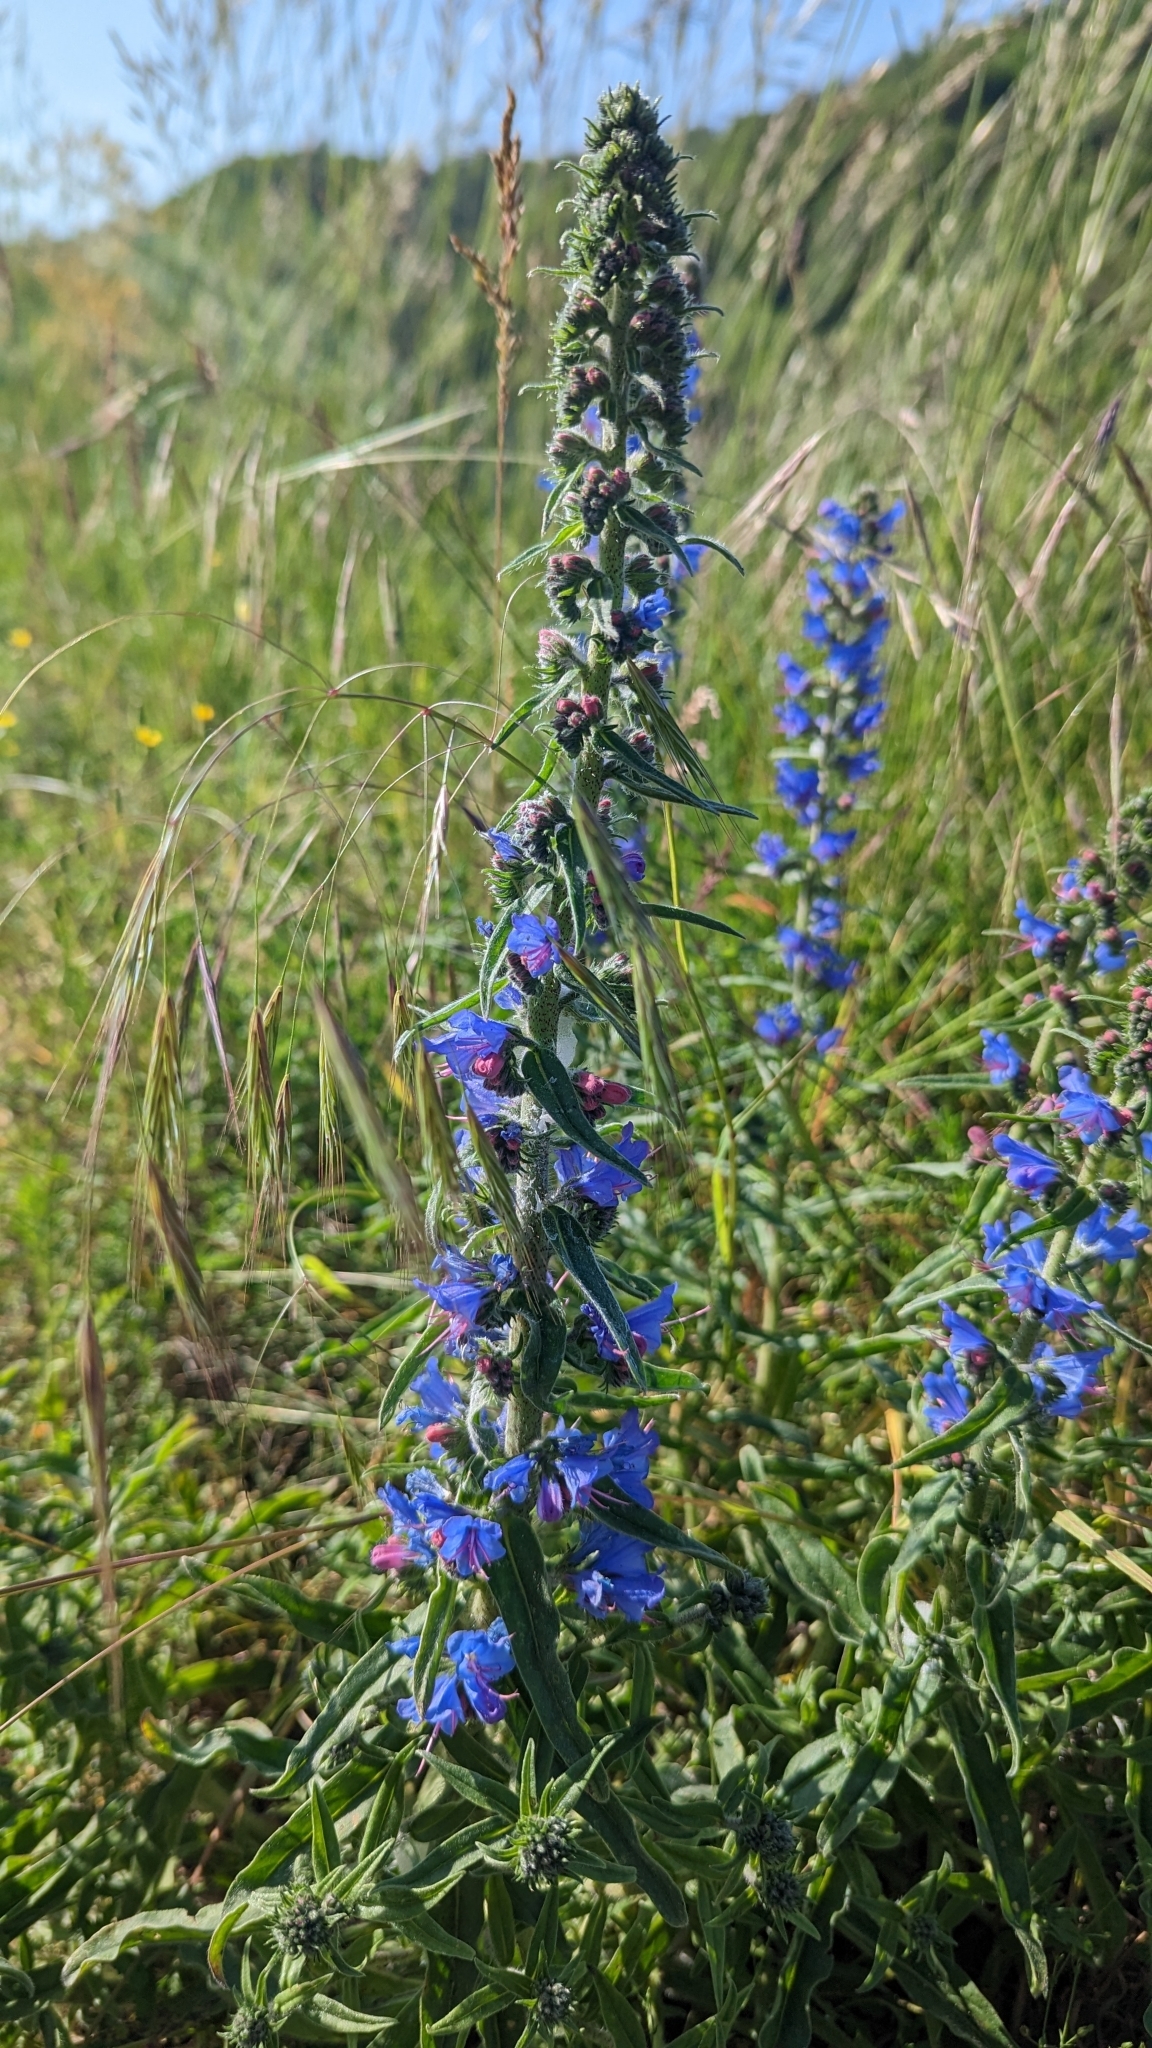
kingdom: Plantae
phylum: Tracheophyta
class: Magnoliopsida
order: Boraginales
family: Boraginaceae
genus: Echium
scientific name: Echium vulgare
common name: Common viper's bugloss
